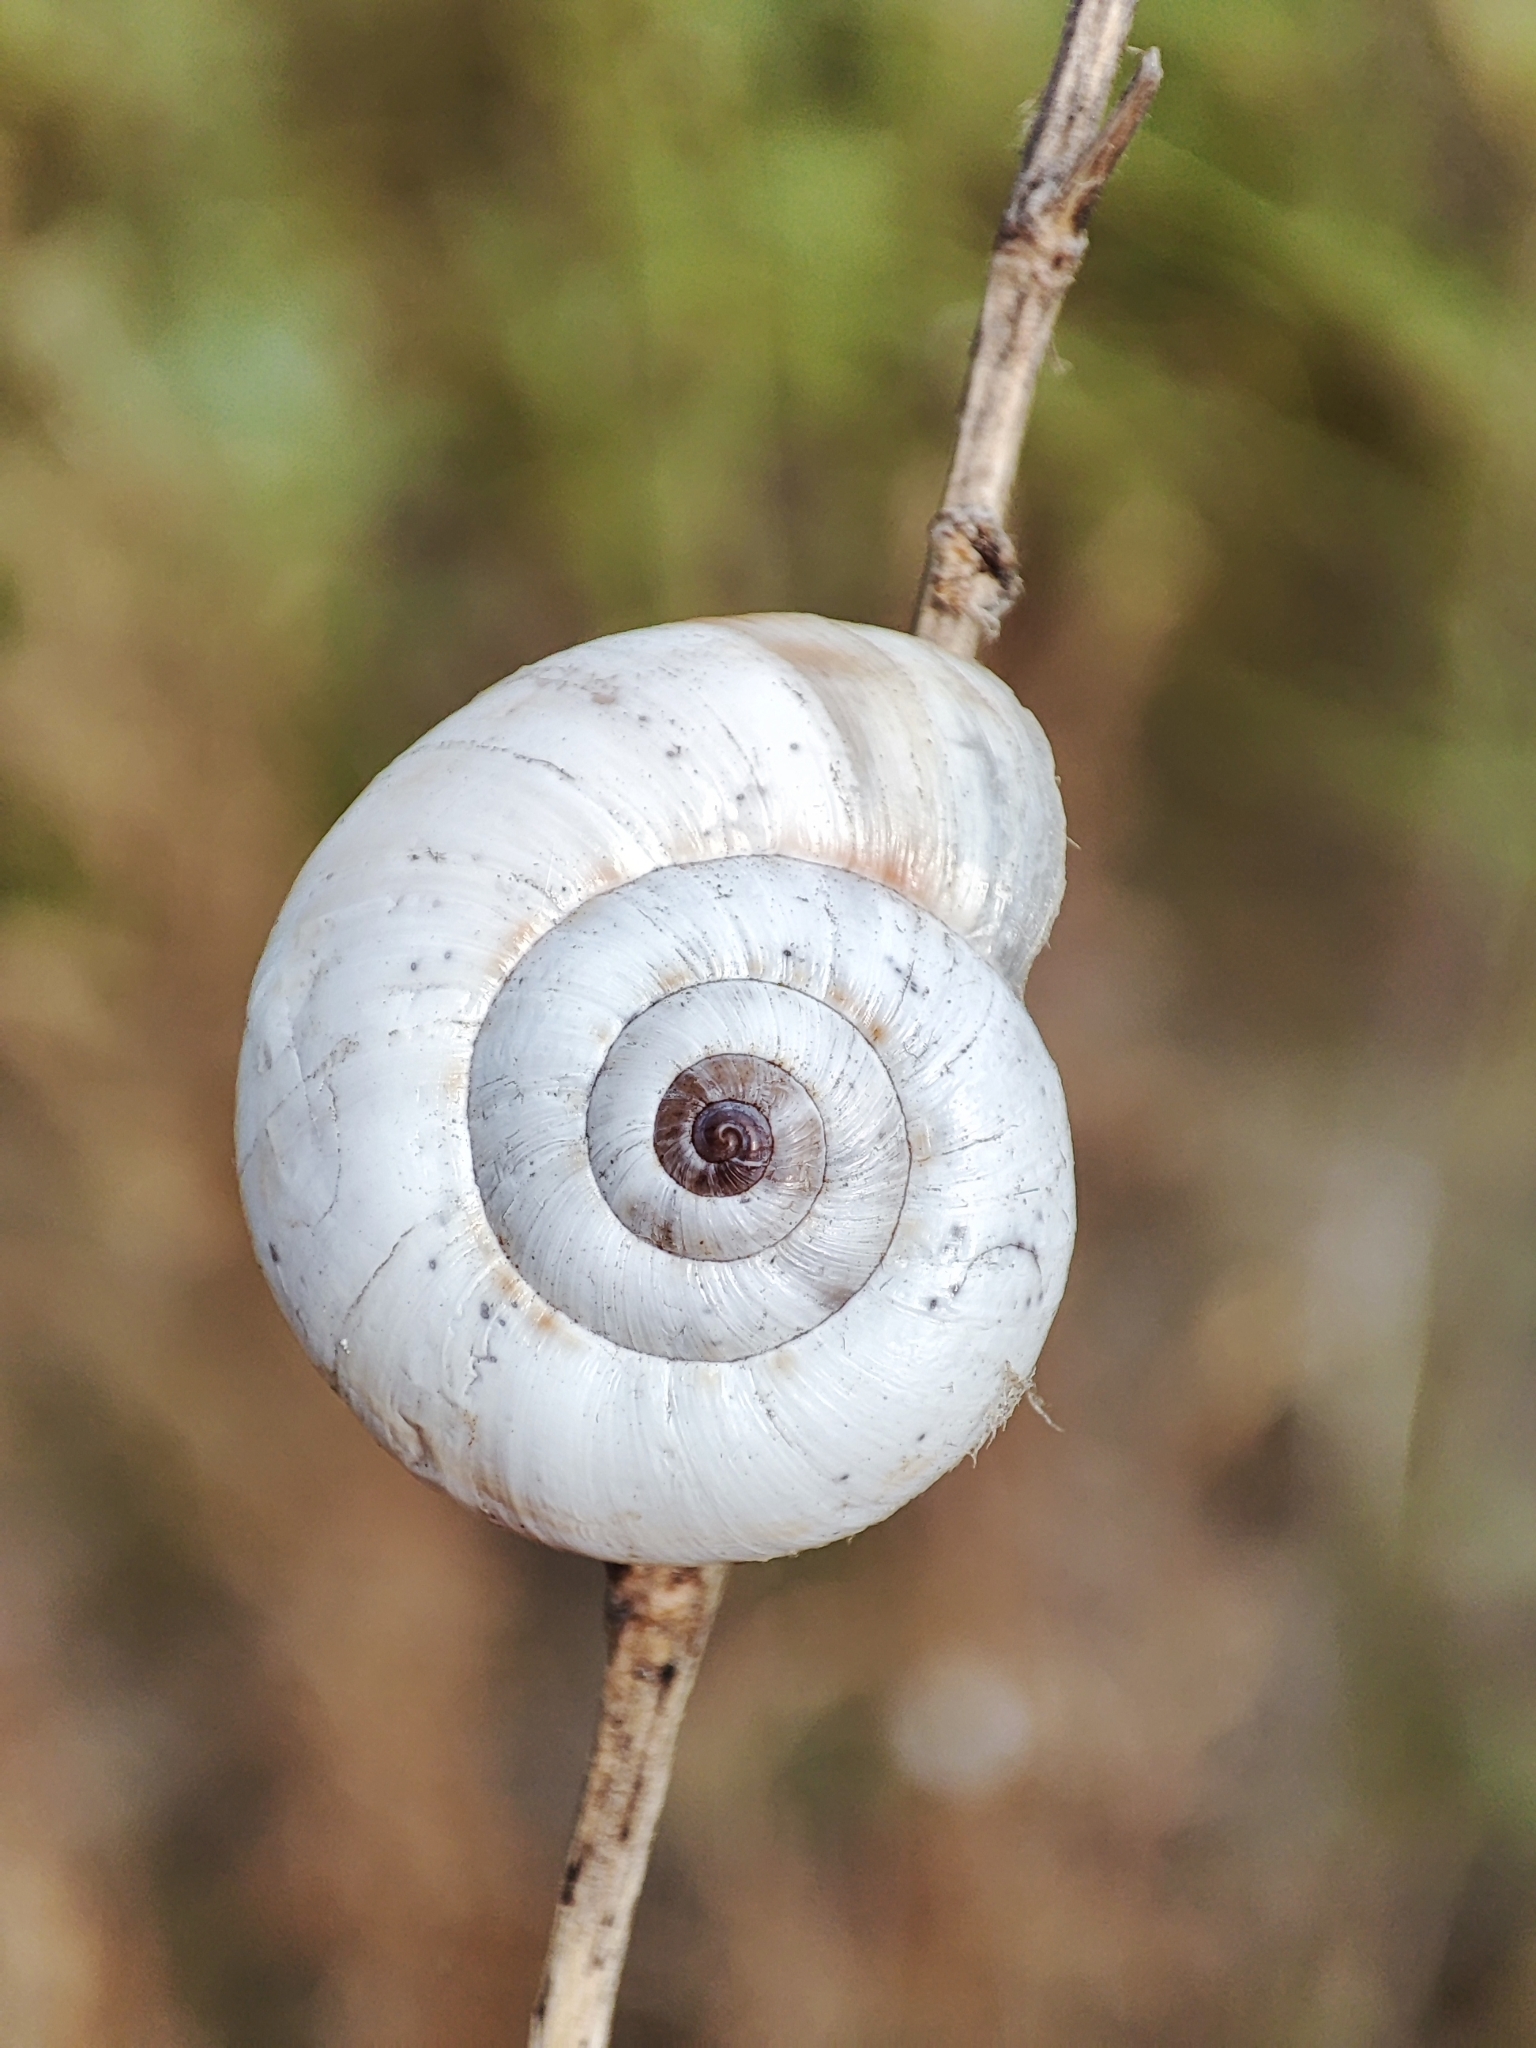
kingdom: Animalia
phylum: Mollusca
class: Gastropoda
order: Stylommatophora
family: Geomitridae
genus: Xeropicta
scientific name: Xeropicta derbentina
